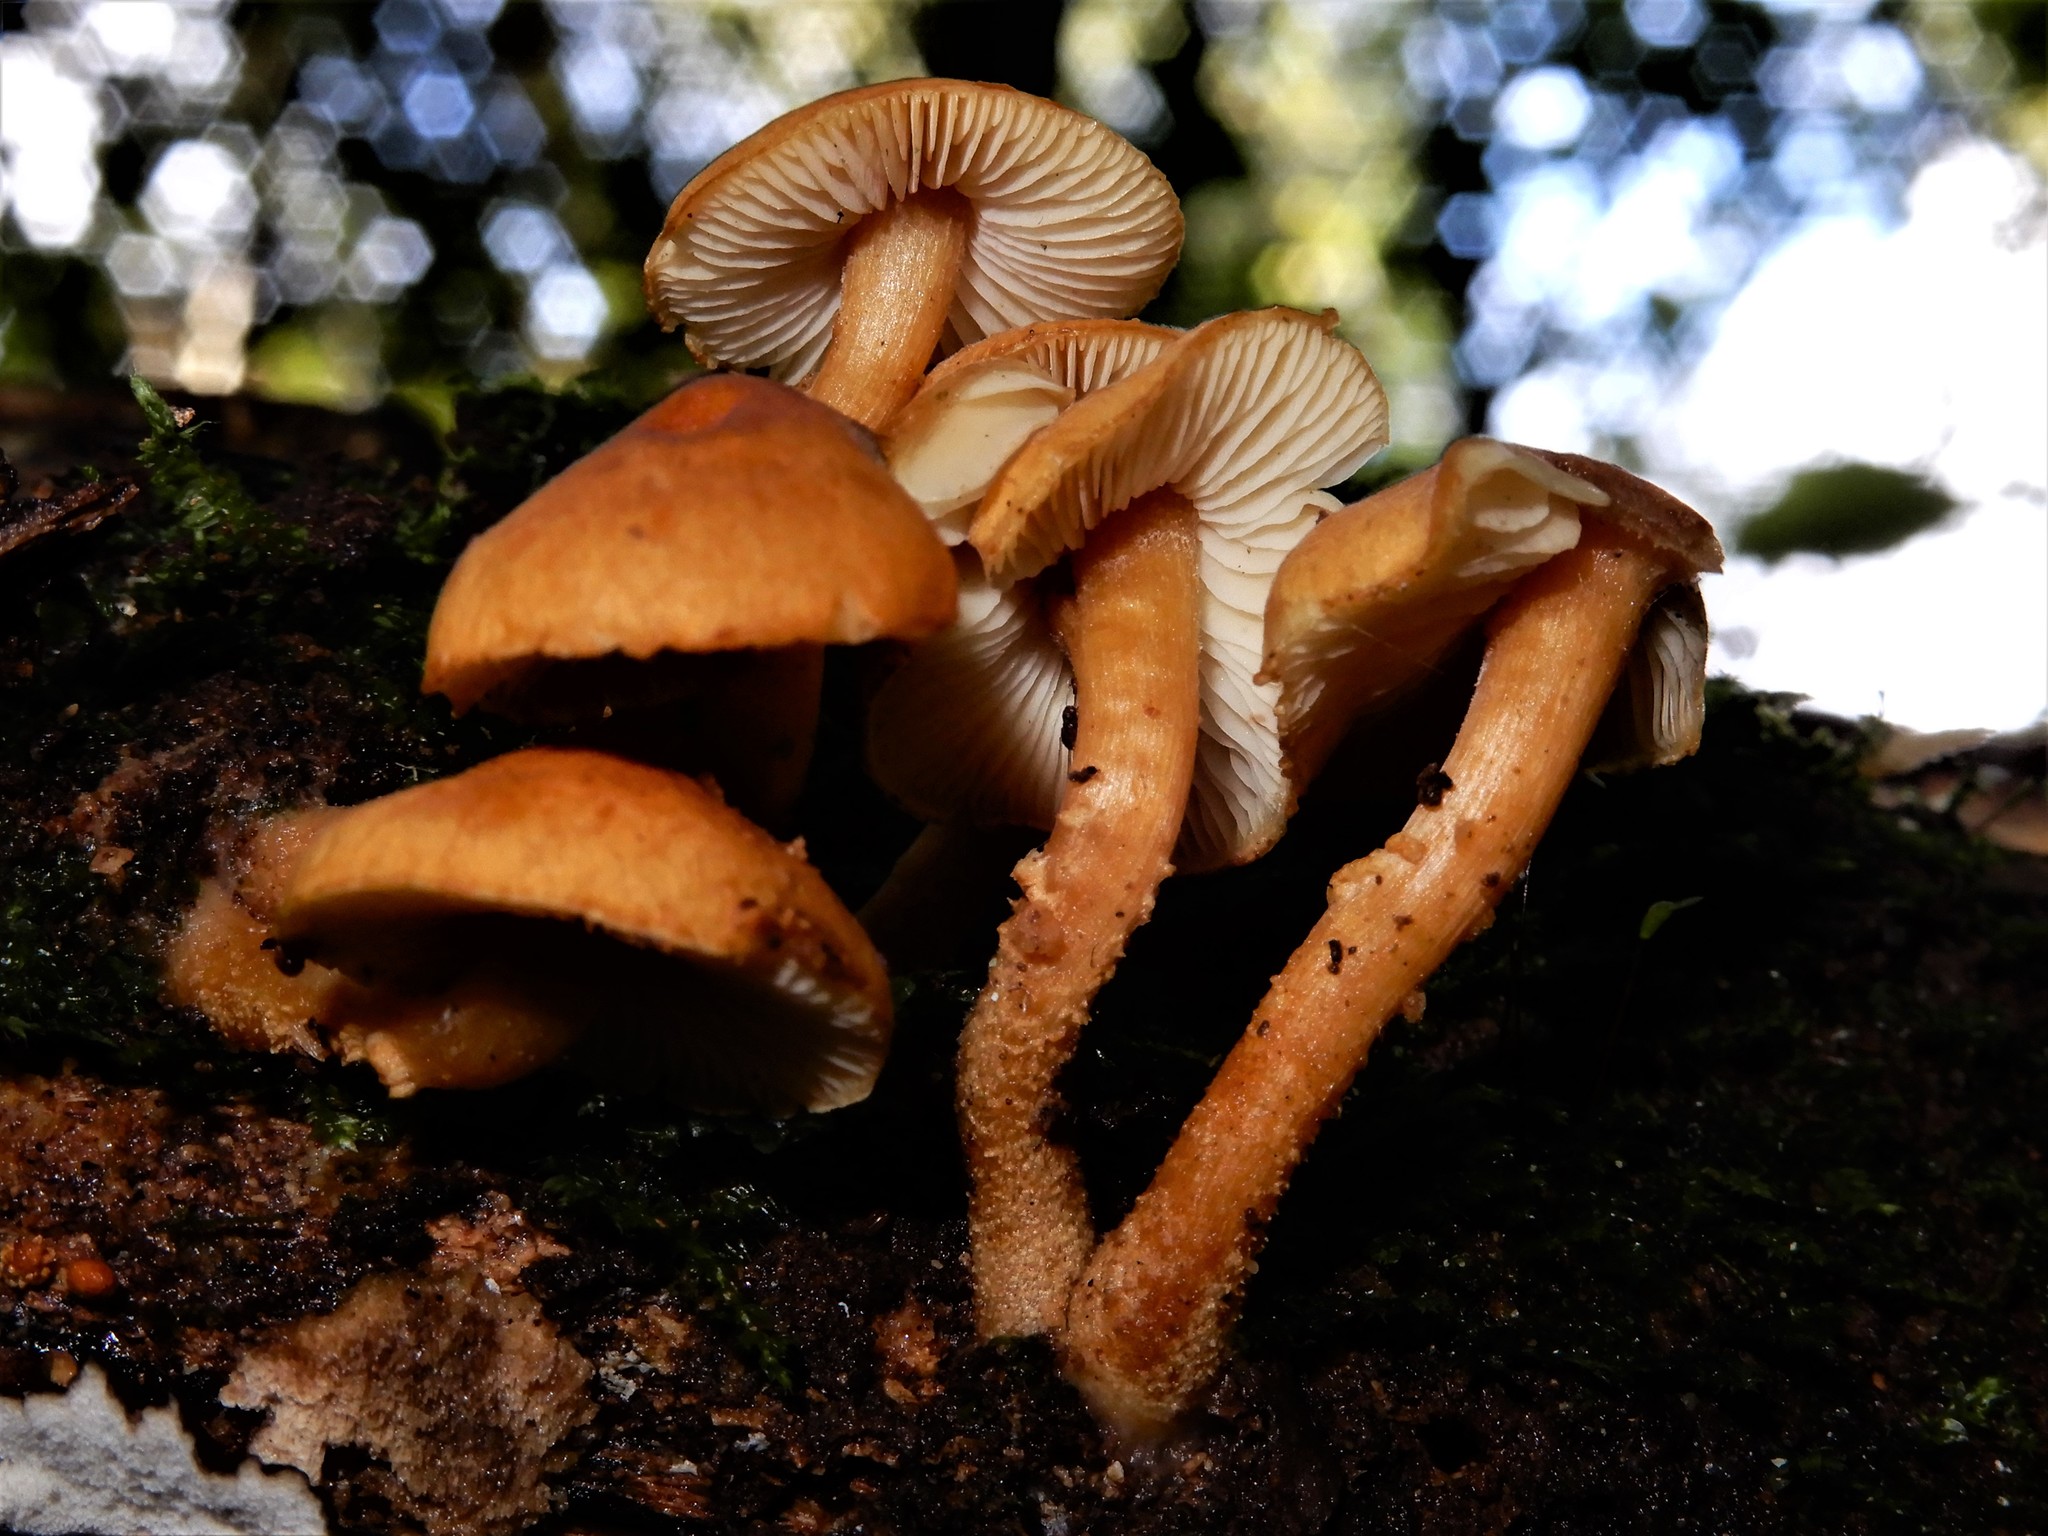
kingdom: Fungi
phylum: Basidiomycota
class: Agaricomycetes
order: Agaricales
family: Tricholomataceae
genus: Cystoderma
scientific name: Cystoderma
